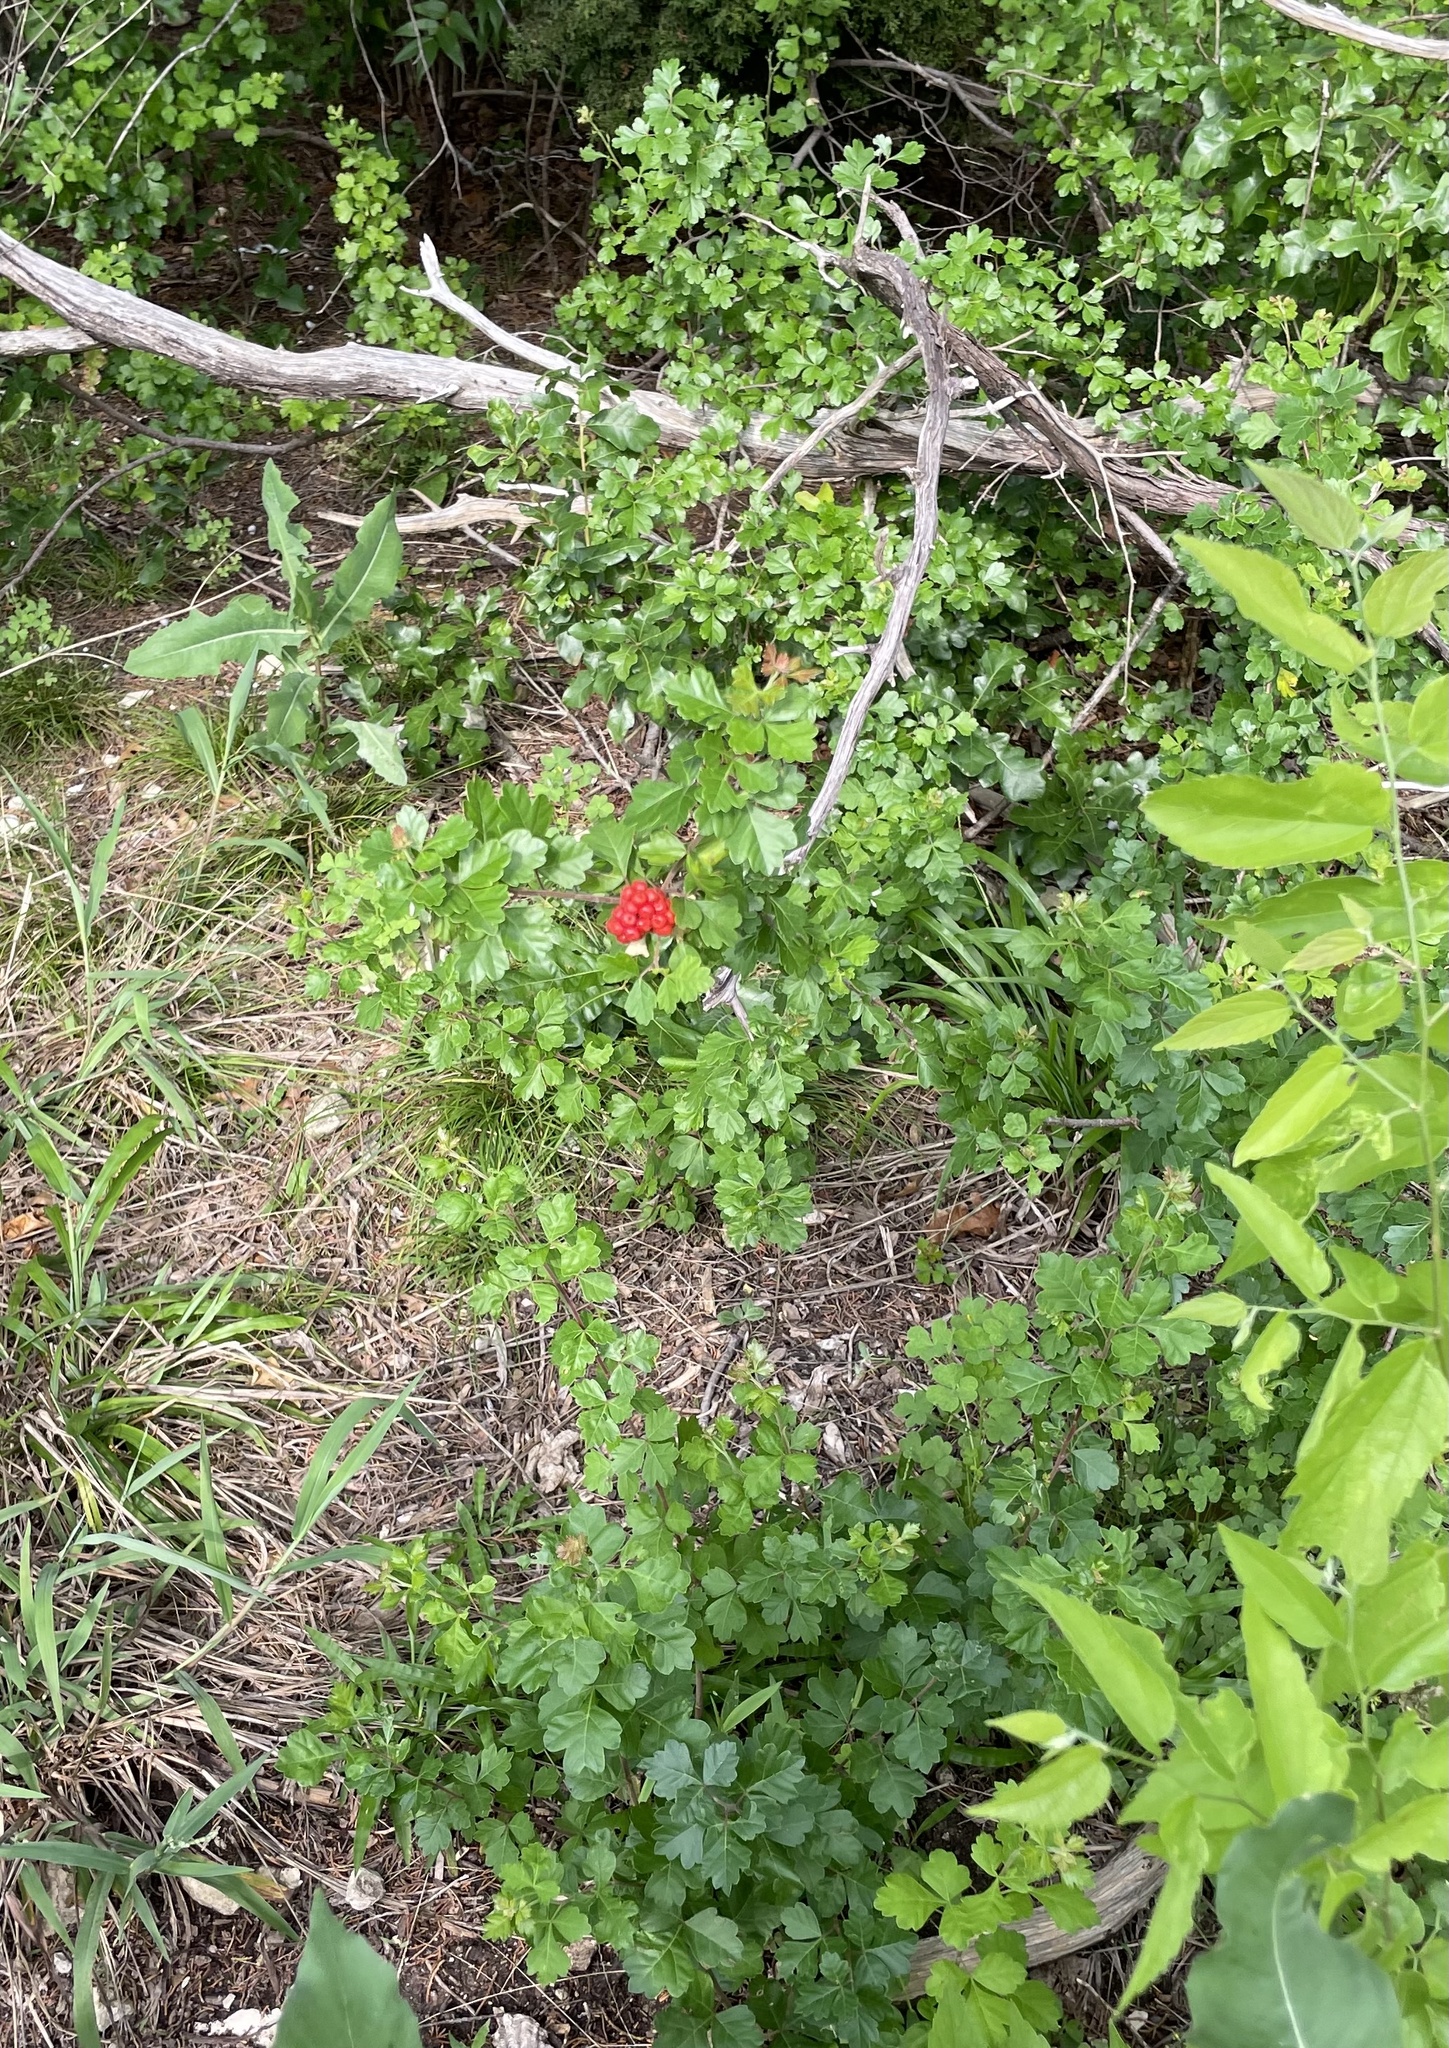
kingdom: Plantae
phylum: Tracheophyta
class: Magnoliopsida
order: Sapindales
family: Anacardiaceae
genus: Rhus
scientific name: Rhus aromatica
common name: Aromatic sumac
